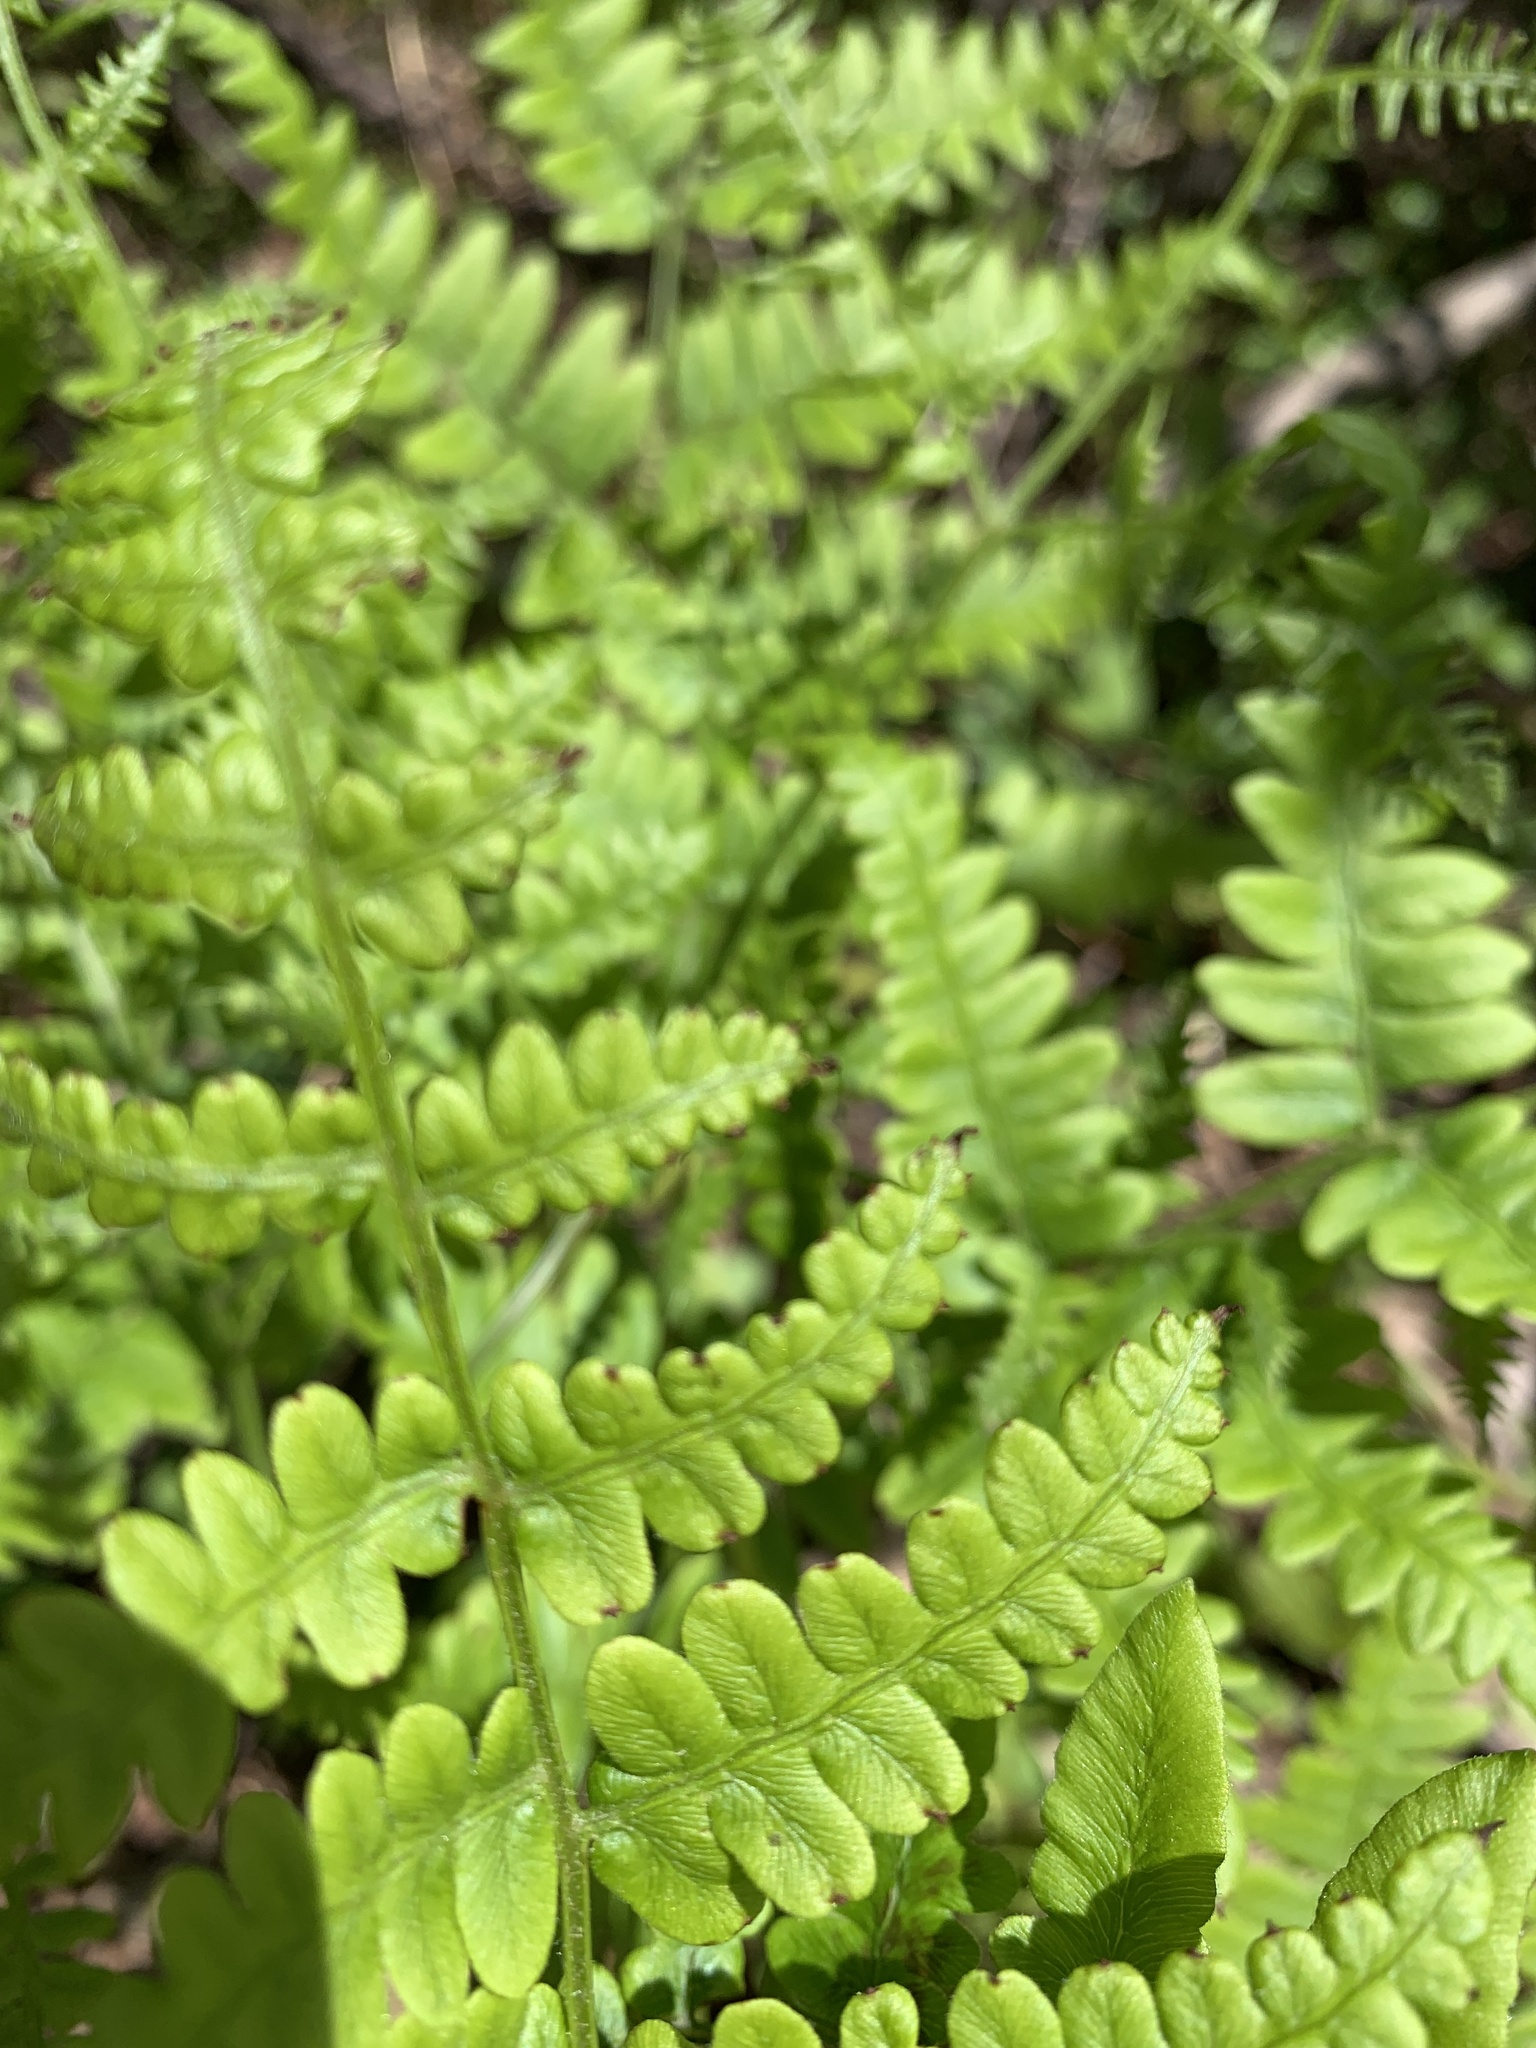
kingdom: Plantae
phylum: Tracheophyta
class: Polypodiopsida
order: Polypodiales
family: Dennstaedtiaceae
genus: Pteridium
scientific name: Pteridium aquilinum
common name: Bracken
